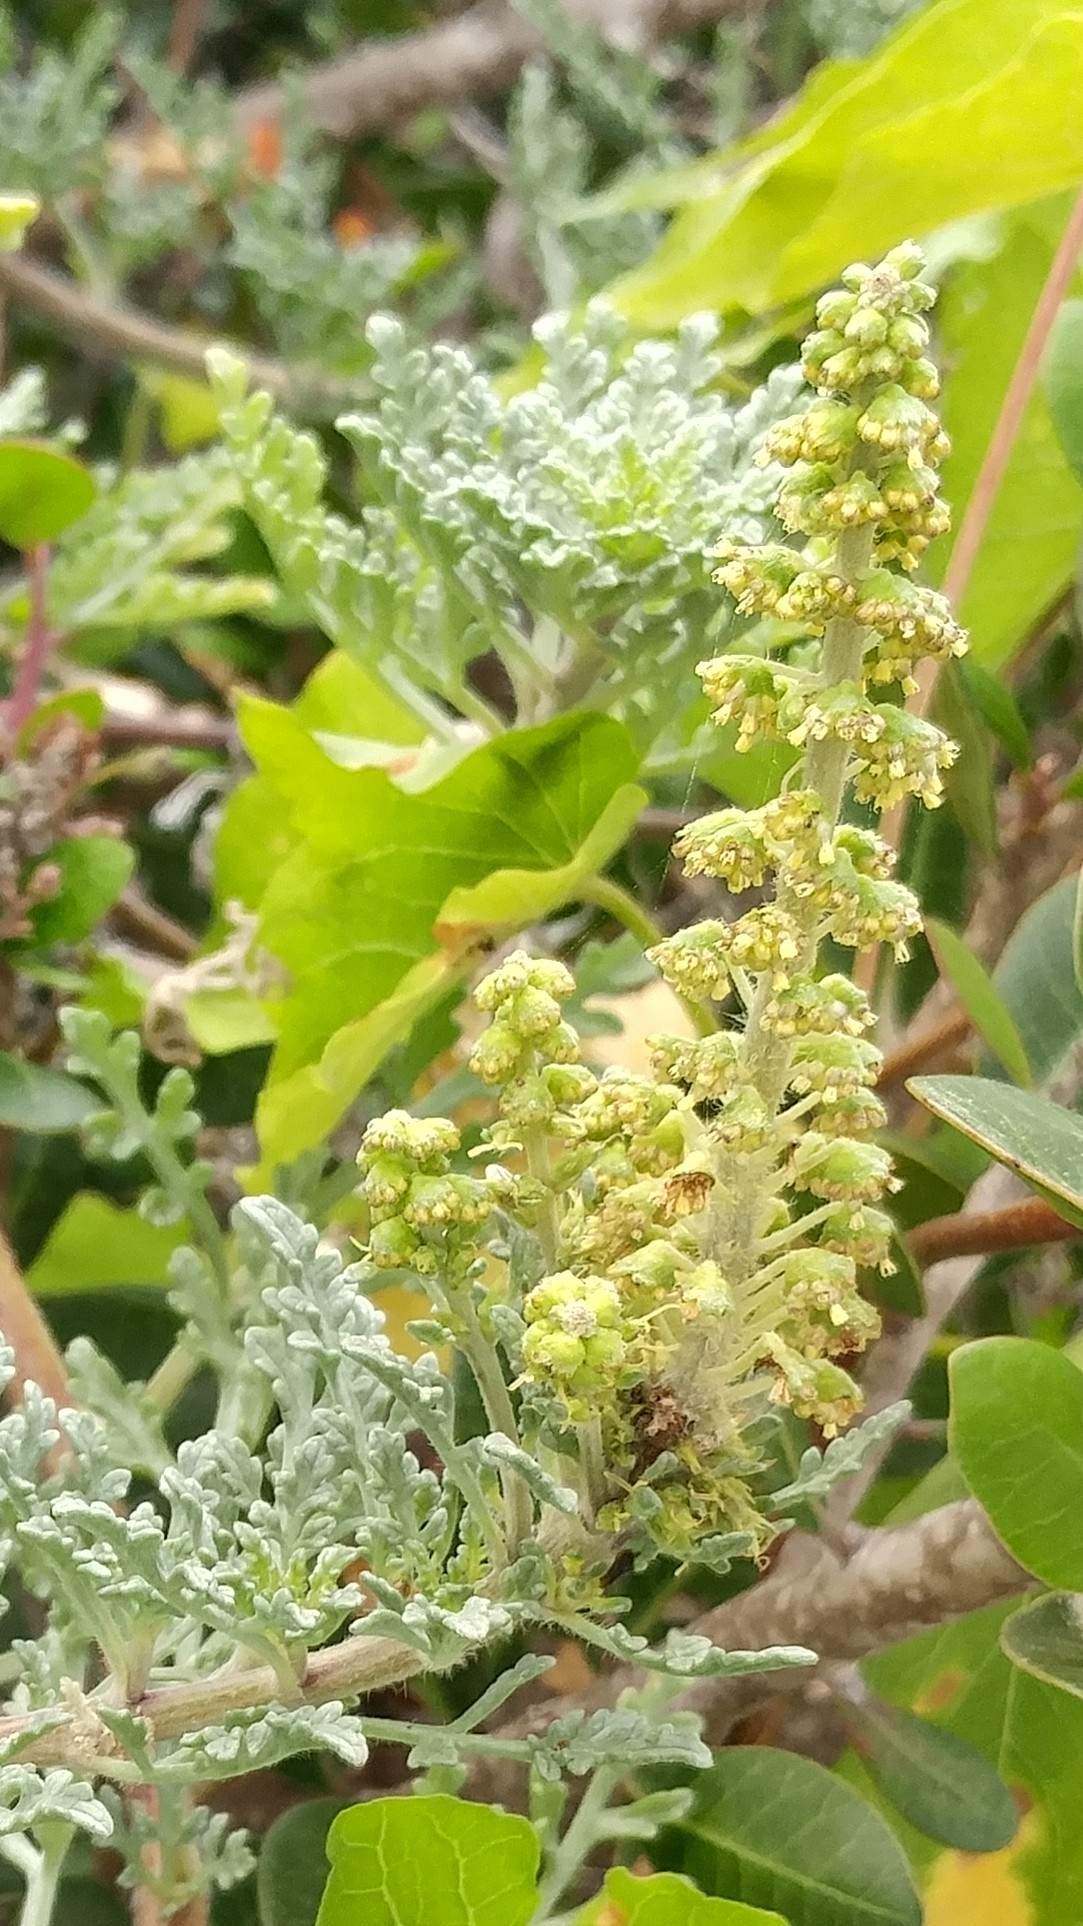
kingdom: Plantae
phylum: Tracheophyta
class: Magnoliopsida
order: Asterales
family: Asteraceae
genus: Ambrosia
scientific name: Ambrosia chamissonis
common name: Beachbur
